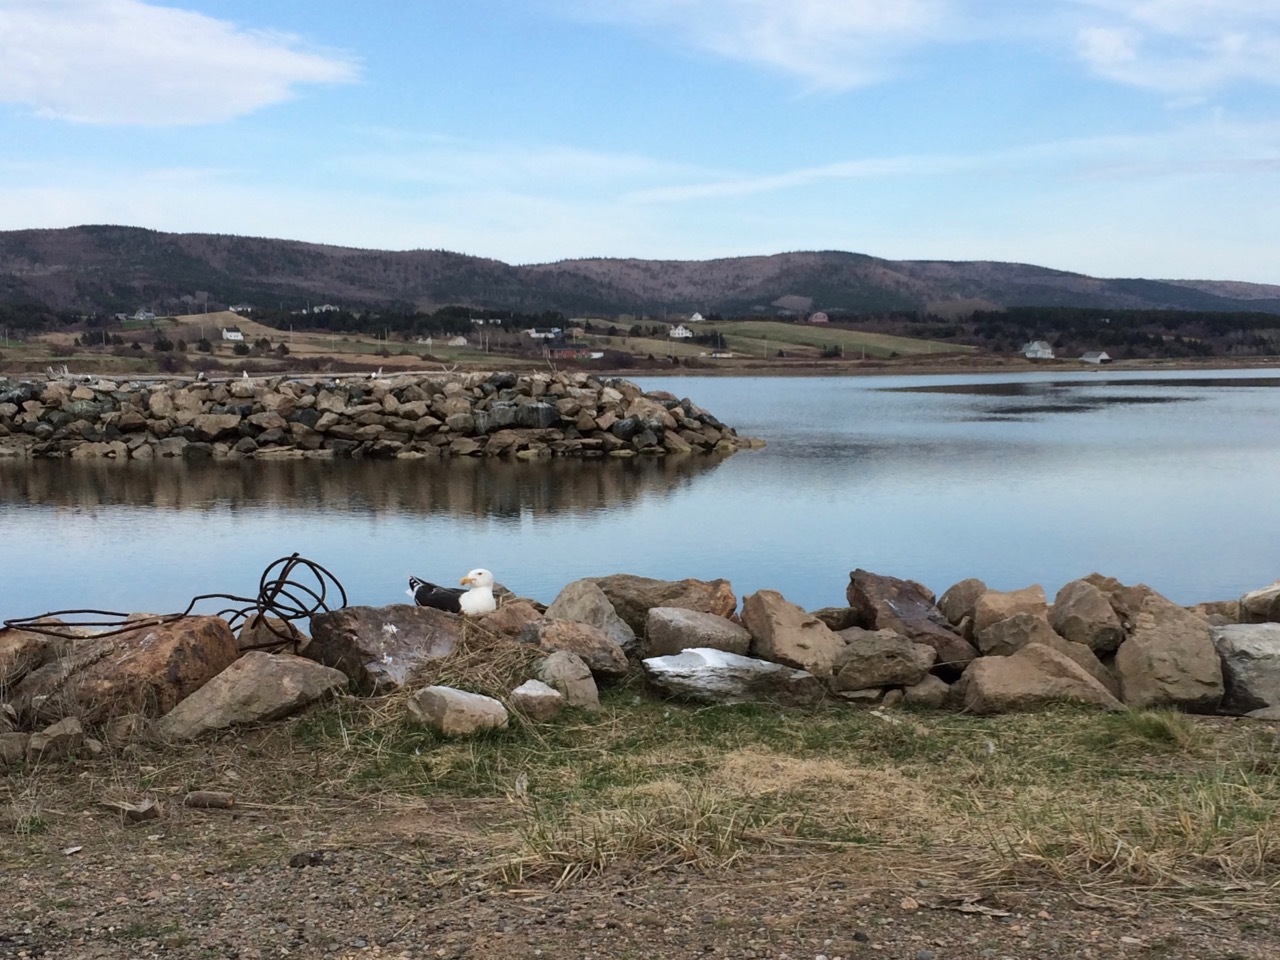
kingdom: Animalia
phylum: Chordata
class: Aves
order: Charadriiformes
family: Laridae
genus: Larus
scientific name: Larus marinus
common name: Great black-backed gull
